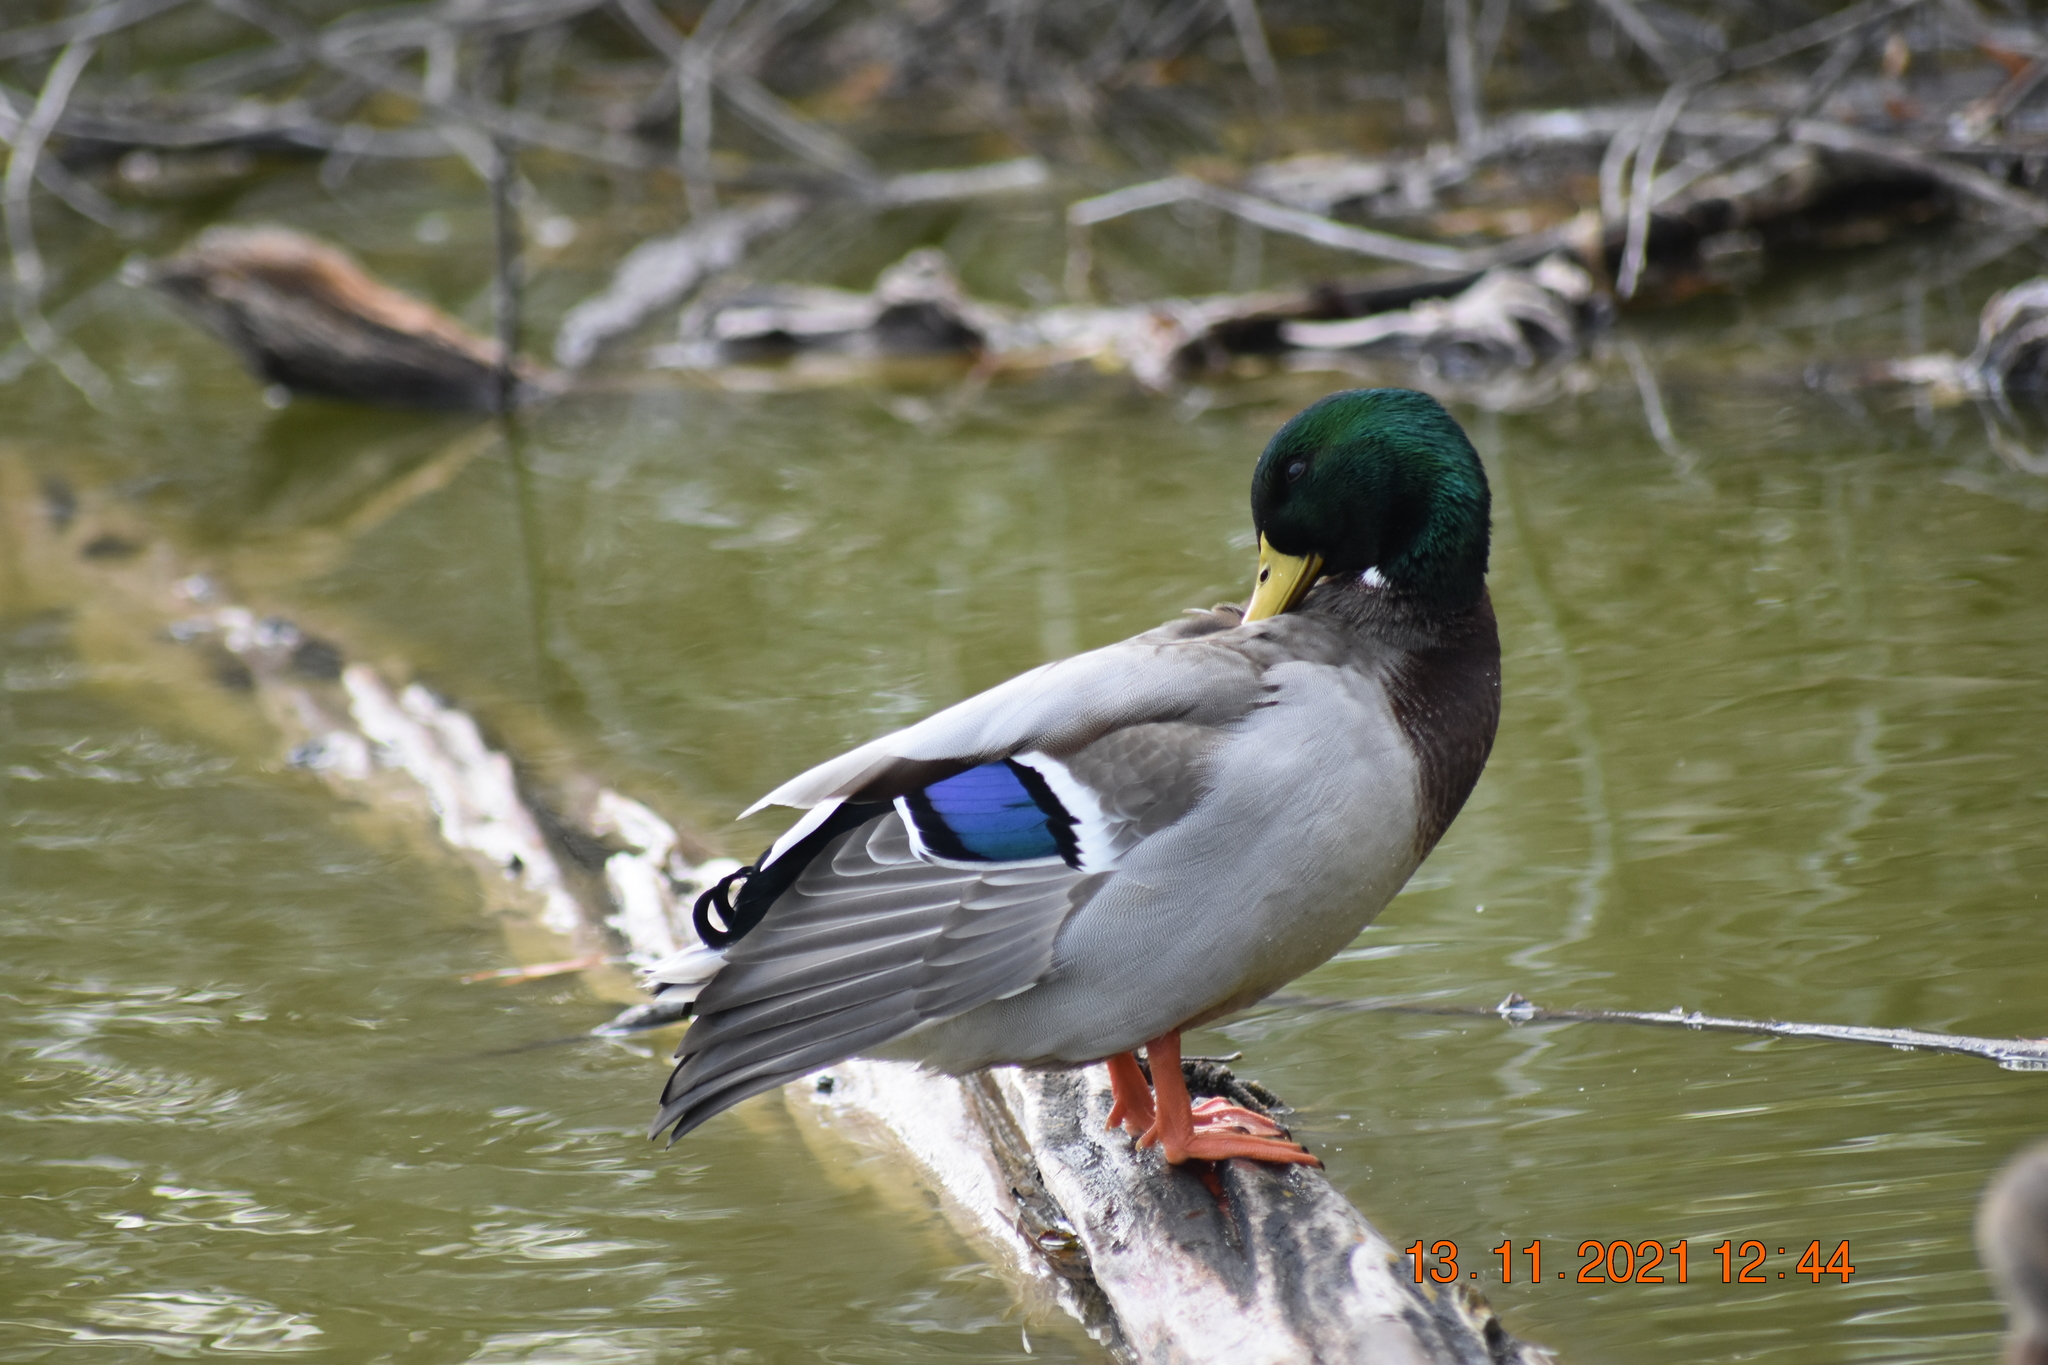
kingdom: Animalia
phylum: Chordata
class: Aves
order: Anseriformes
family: Anatidae
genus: Anas
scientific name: Anas platyrhynchos
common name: Mallard
